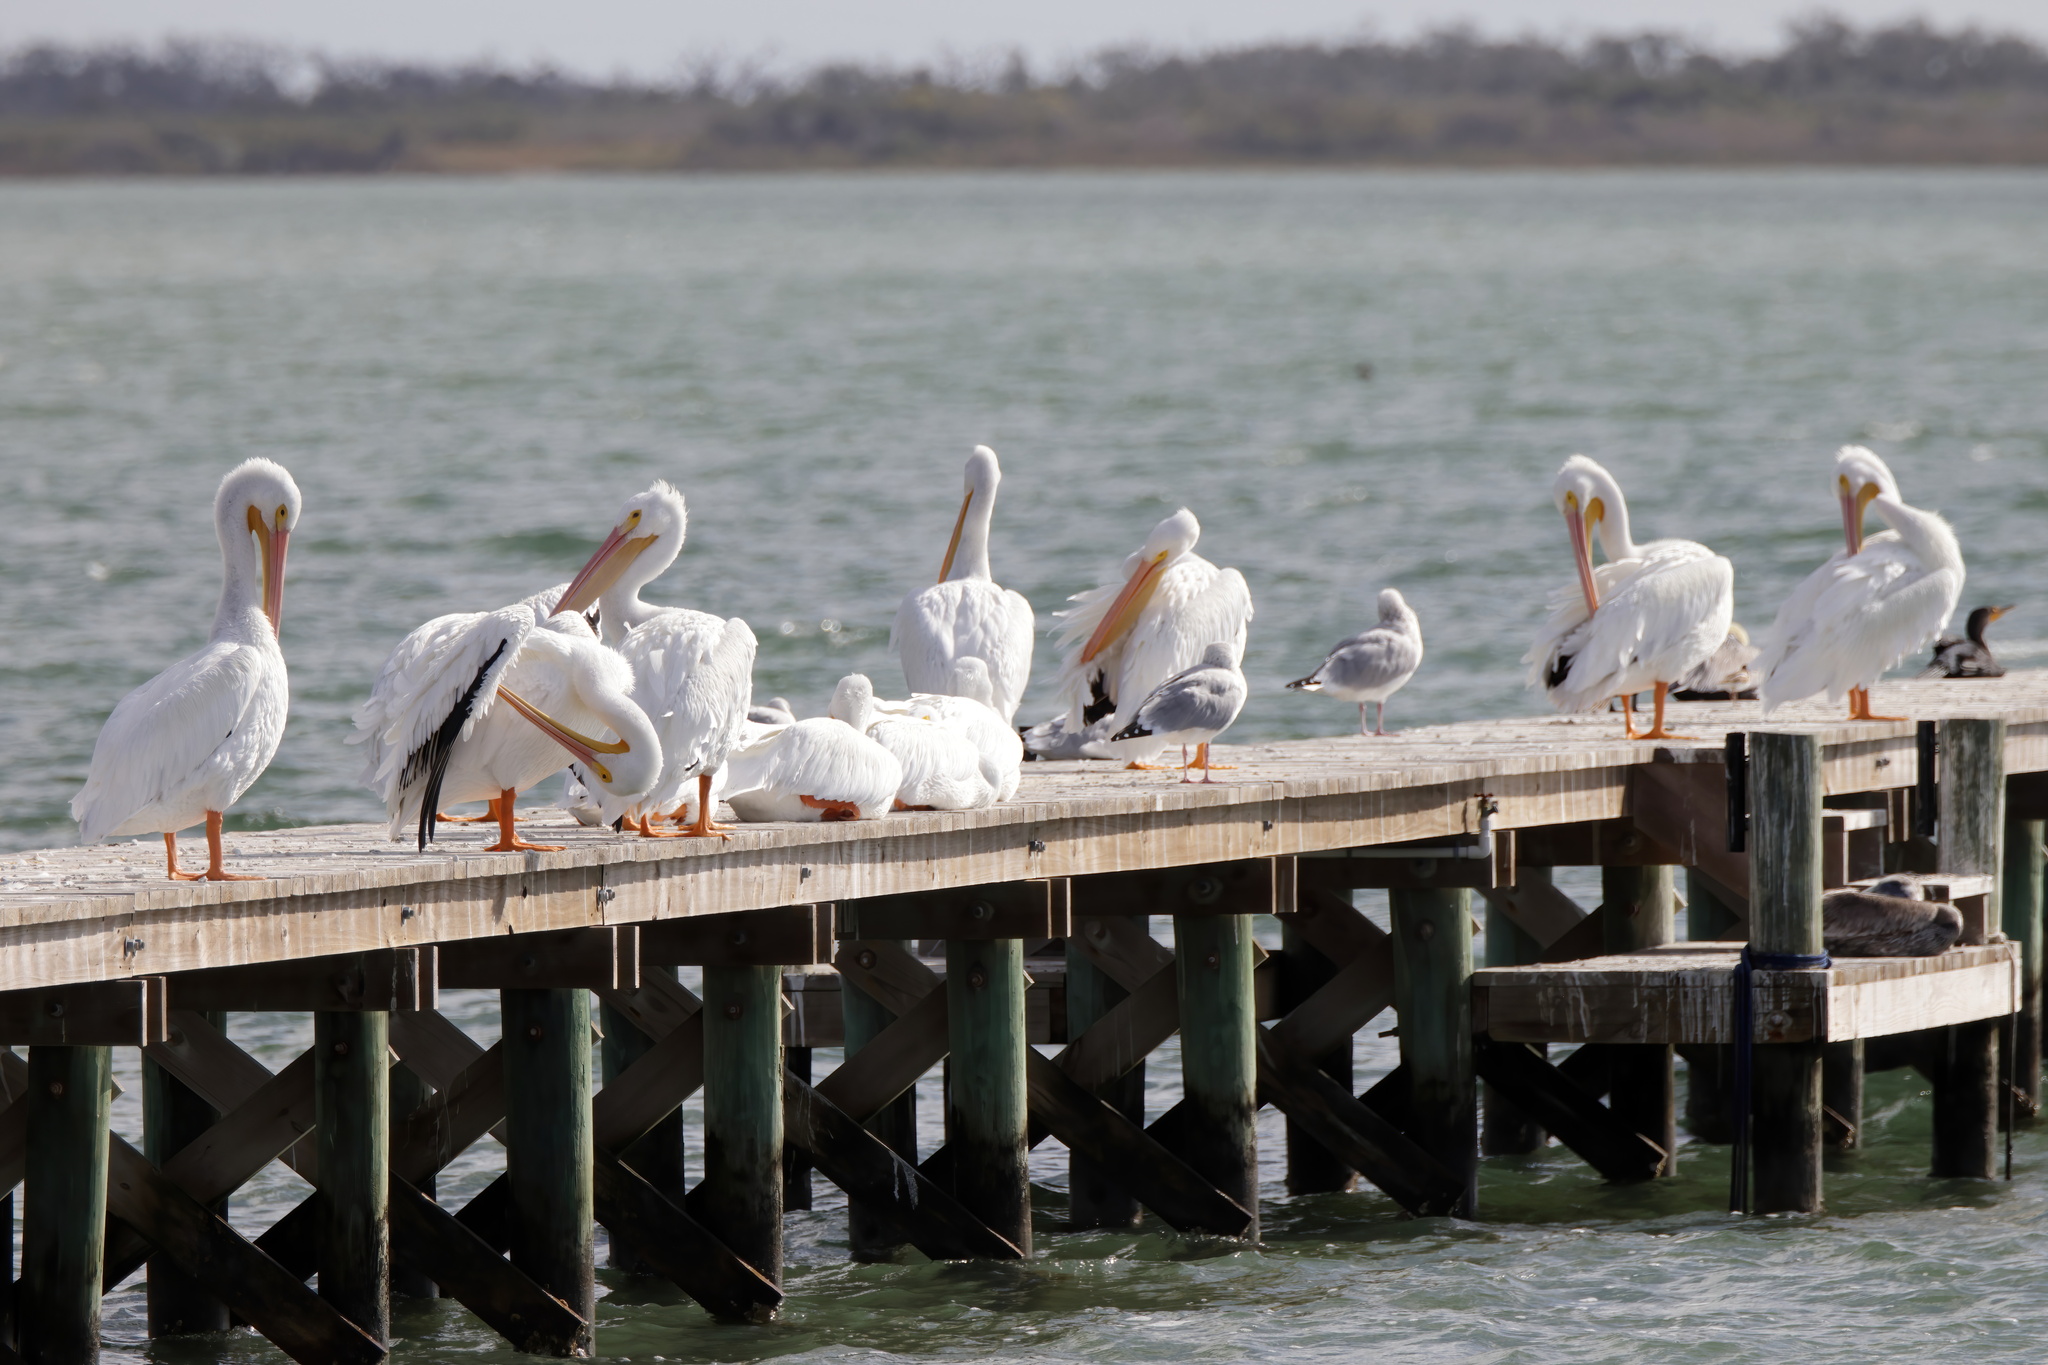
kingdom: Animalia
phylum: Chordata
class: Aves
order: Pelecaniformes
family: Pelecanidae
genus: Pelecanus
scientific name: Pelecanus erythrorhynchos
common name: American white pelican
